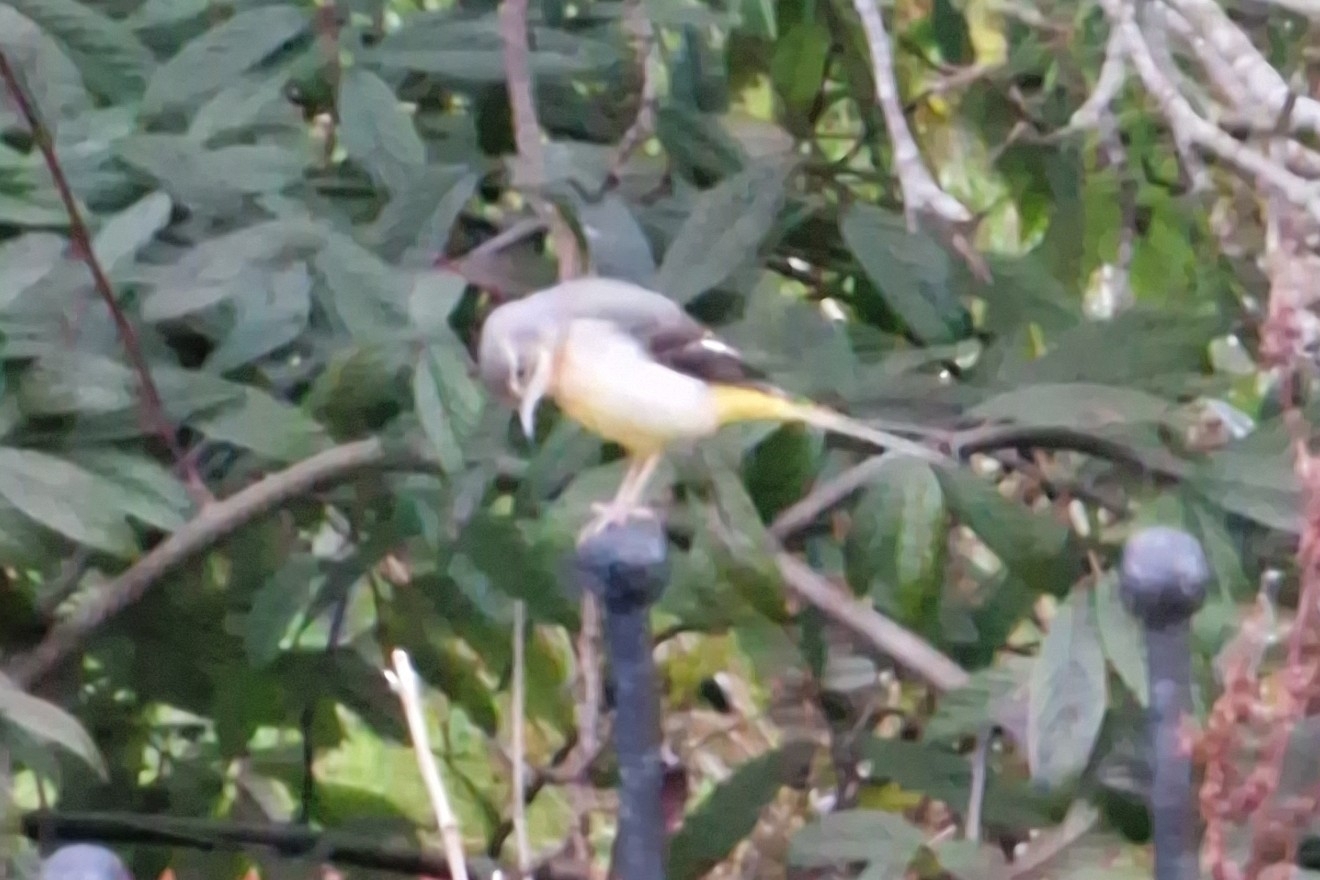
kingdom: Animalia
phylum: Chordata
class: Aves
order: Passeriformes
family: Motacillidae
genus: Motacilla
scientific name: Motacilla cinerea
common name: Grey wagtail
